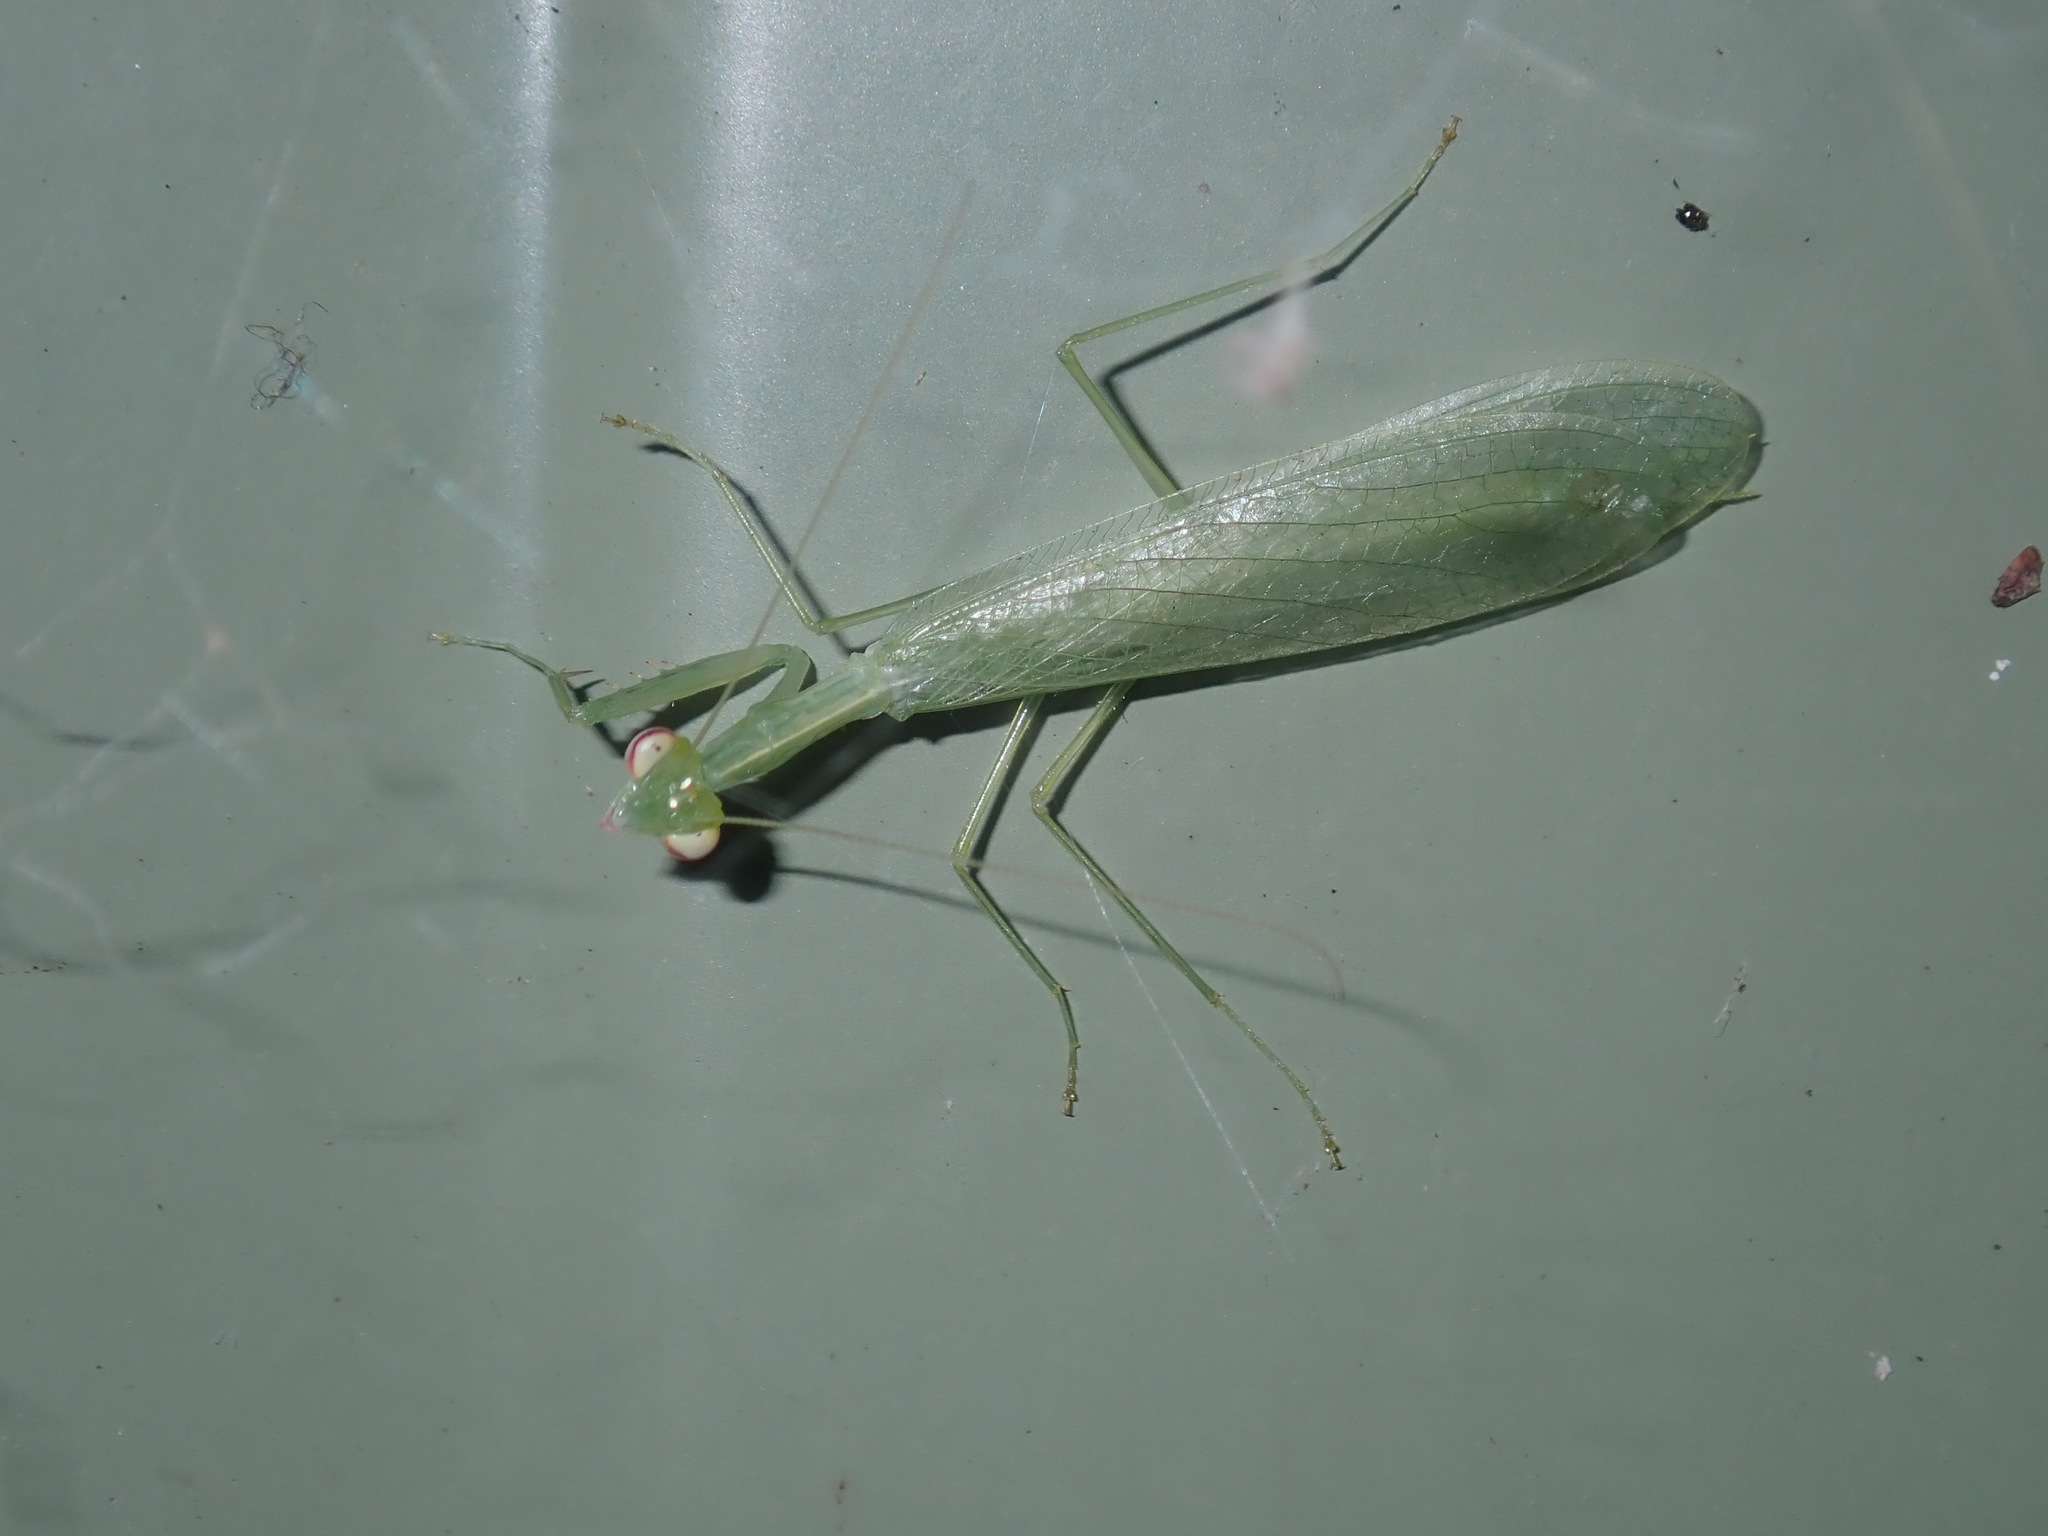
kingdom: Animalia
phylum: Arthropoda
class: Insecta
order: Mantodea
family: Nanomantidae
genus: Kongobatha
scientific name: Kongobatha diademata
